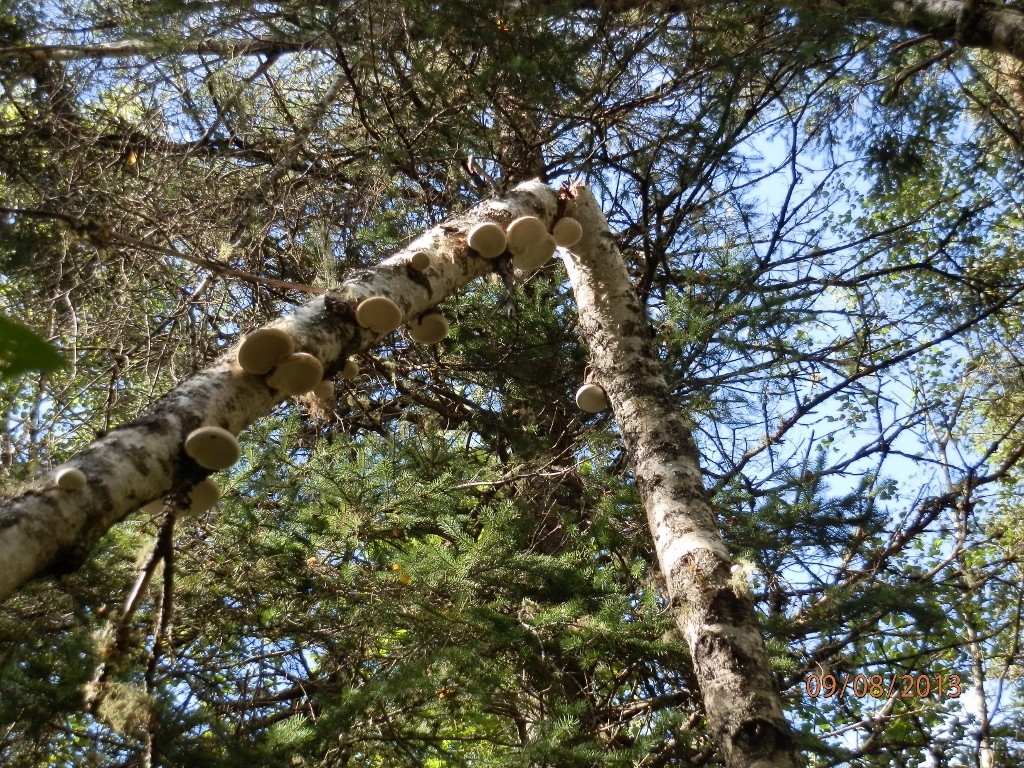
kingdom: Fungi
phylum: Basidiomycota
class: Agaricomycetes
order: Polyporales
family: Fomitopsidaceae
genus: Fomitopsis
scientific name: Fomitopsis betulina
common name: Birch polypore
